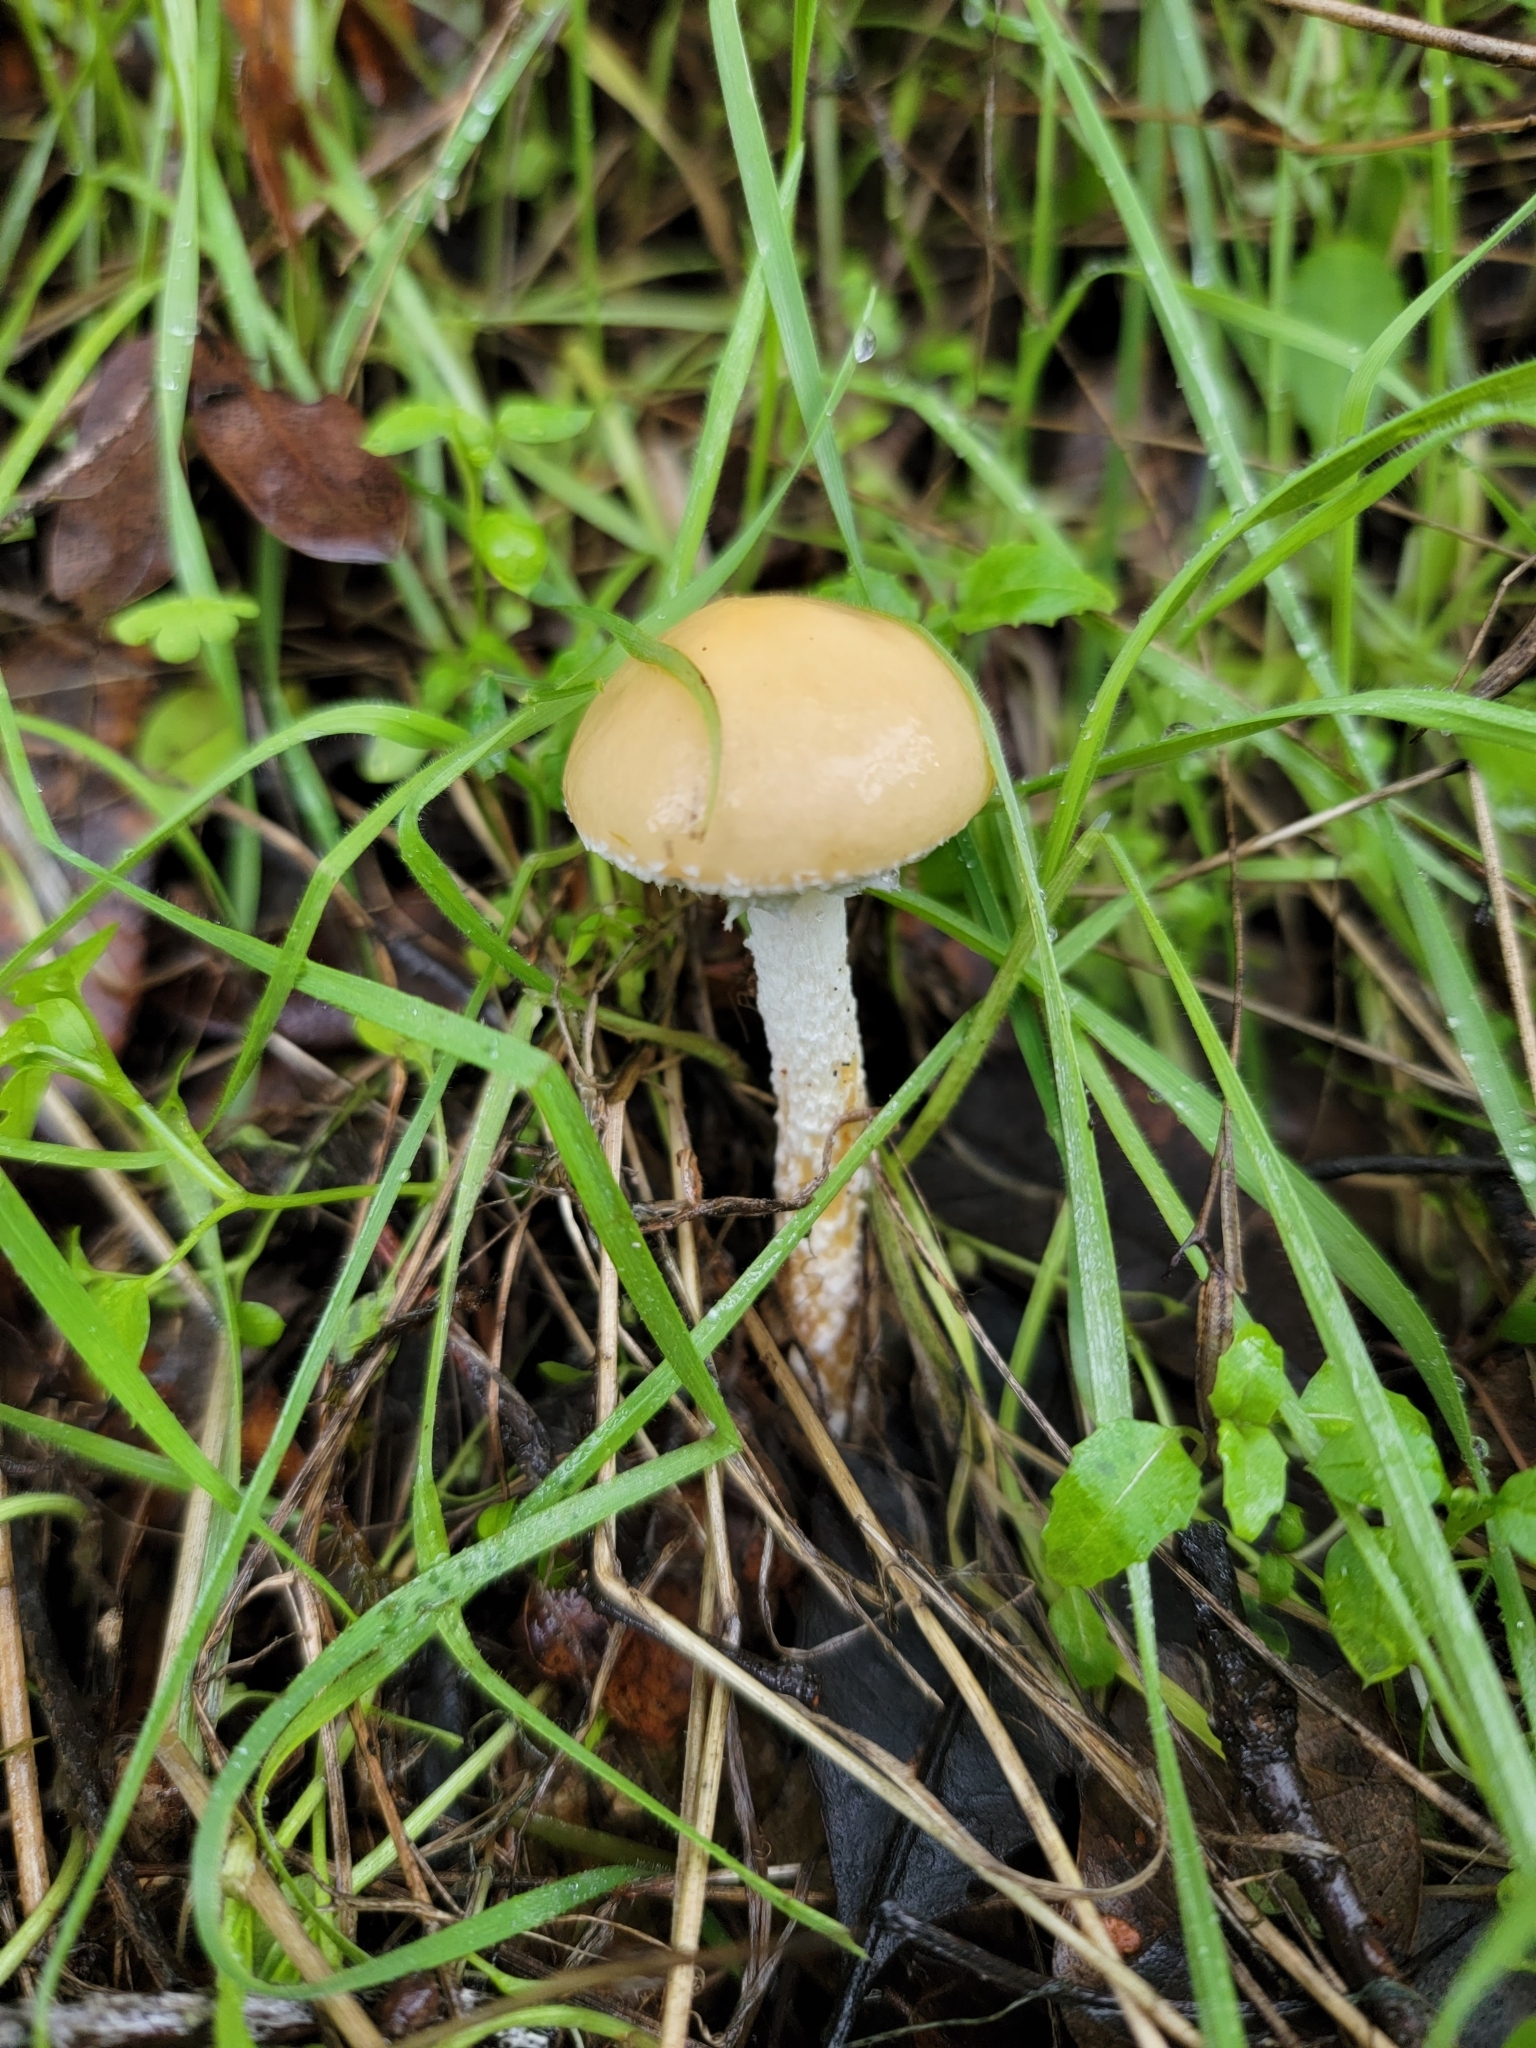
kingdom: Fungi
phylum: Basidiomycota
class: Agaricomycetes
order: Agaricales
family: Strophariaceae
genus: Stropharia
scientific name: Stropharia ambigua
